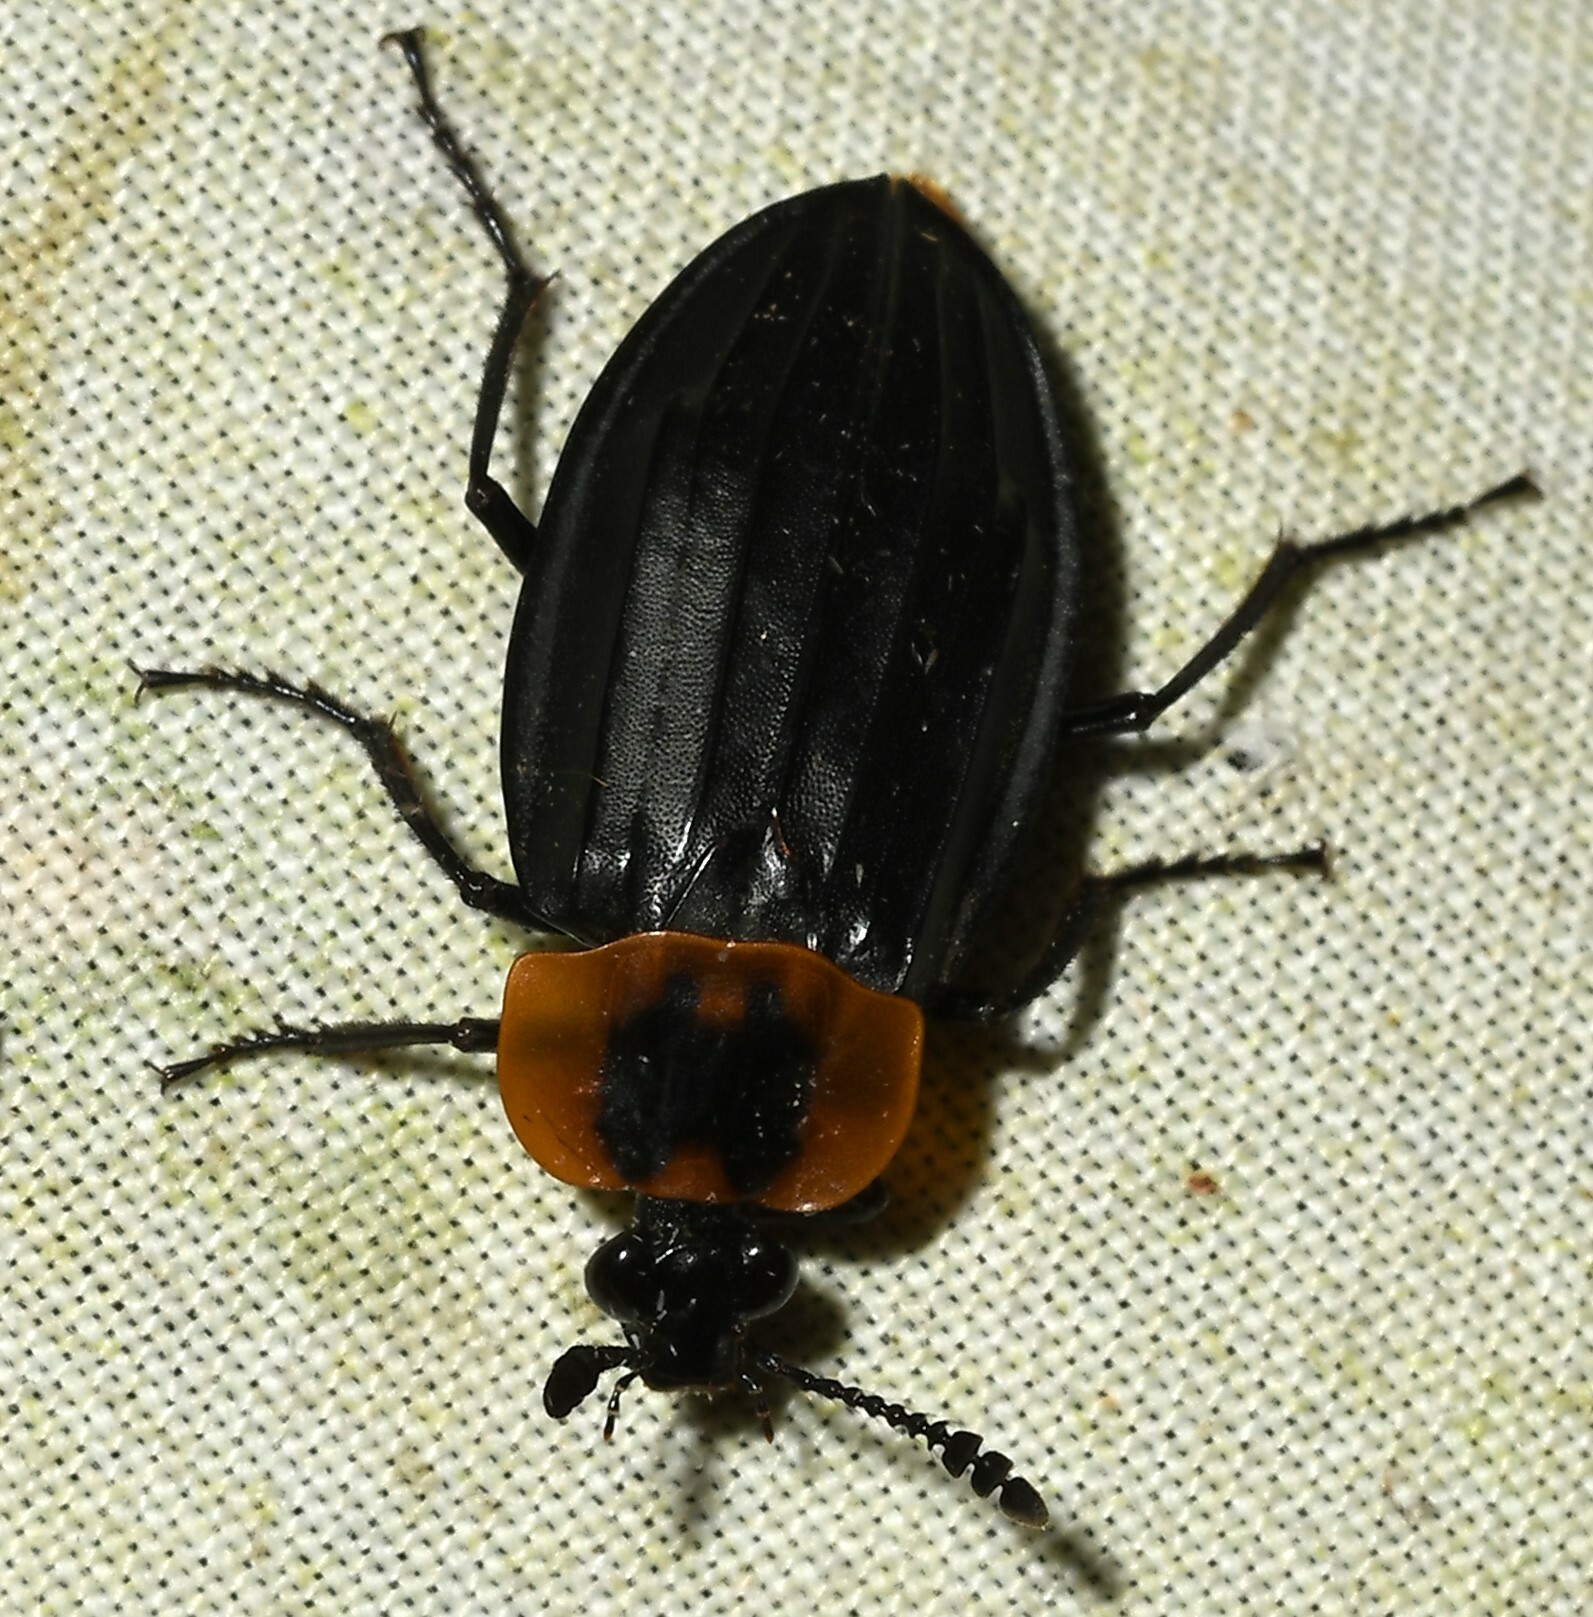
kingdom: Animalia
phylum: Arthropoda
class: Insecta
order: Coleoptera
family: Staphylinidae
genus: Oxelytrum
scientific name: Oxelytrum discicolle
